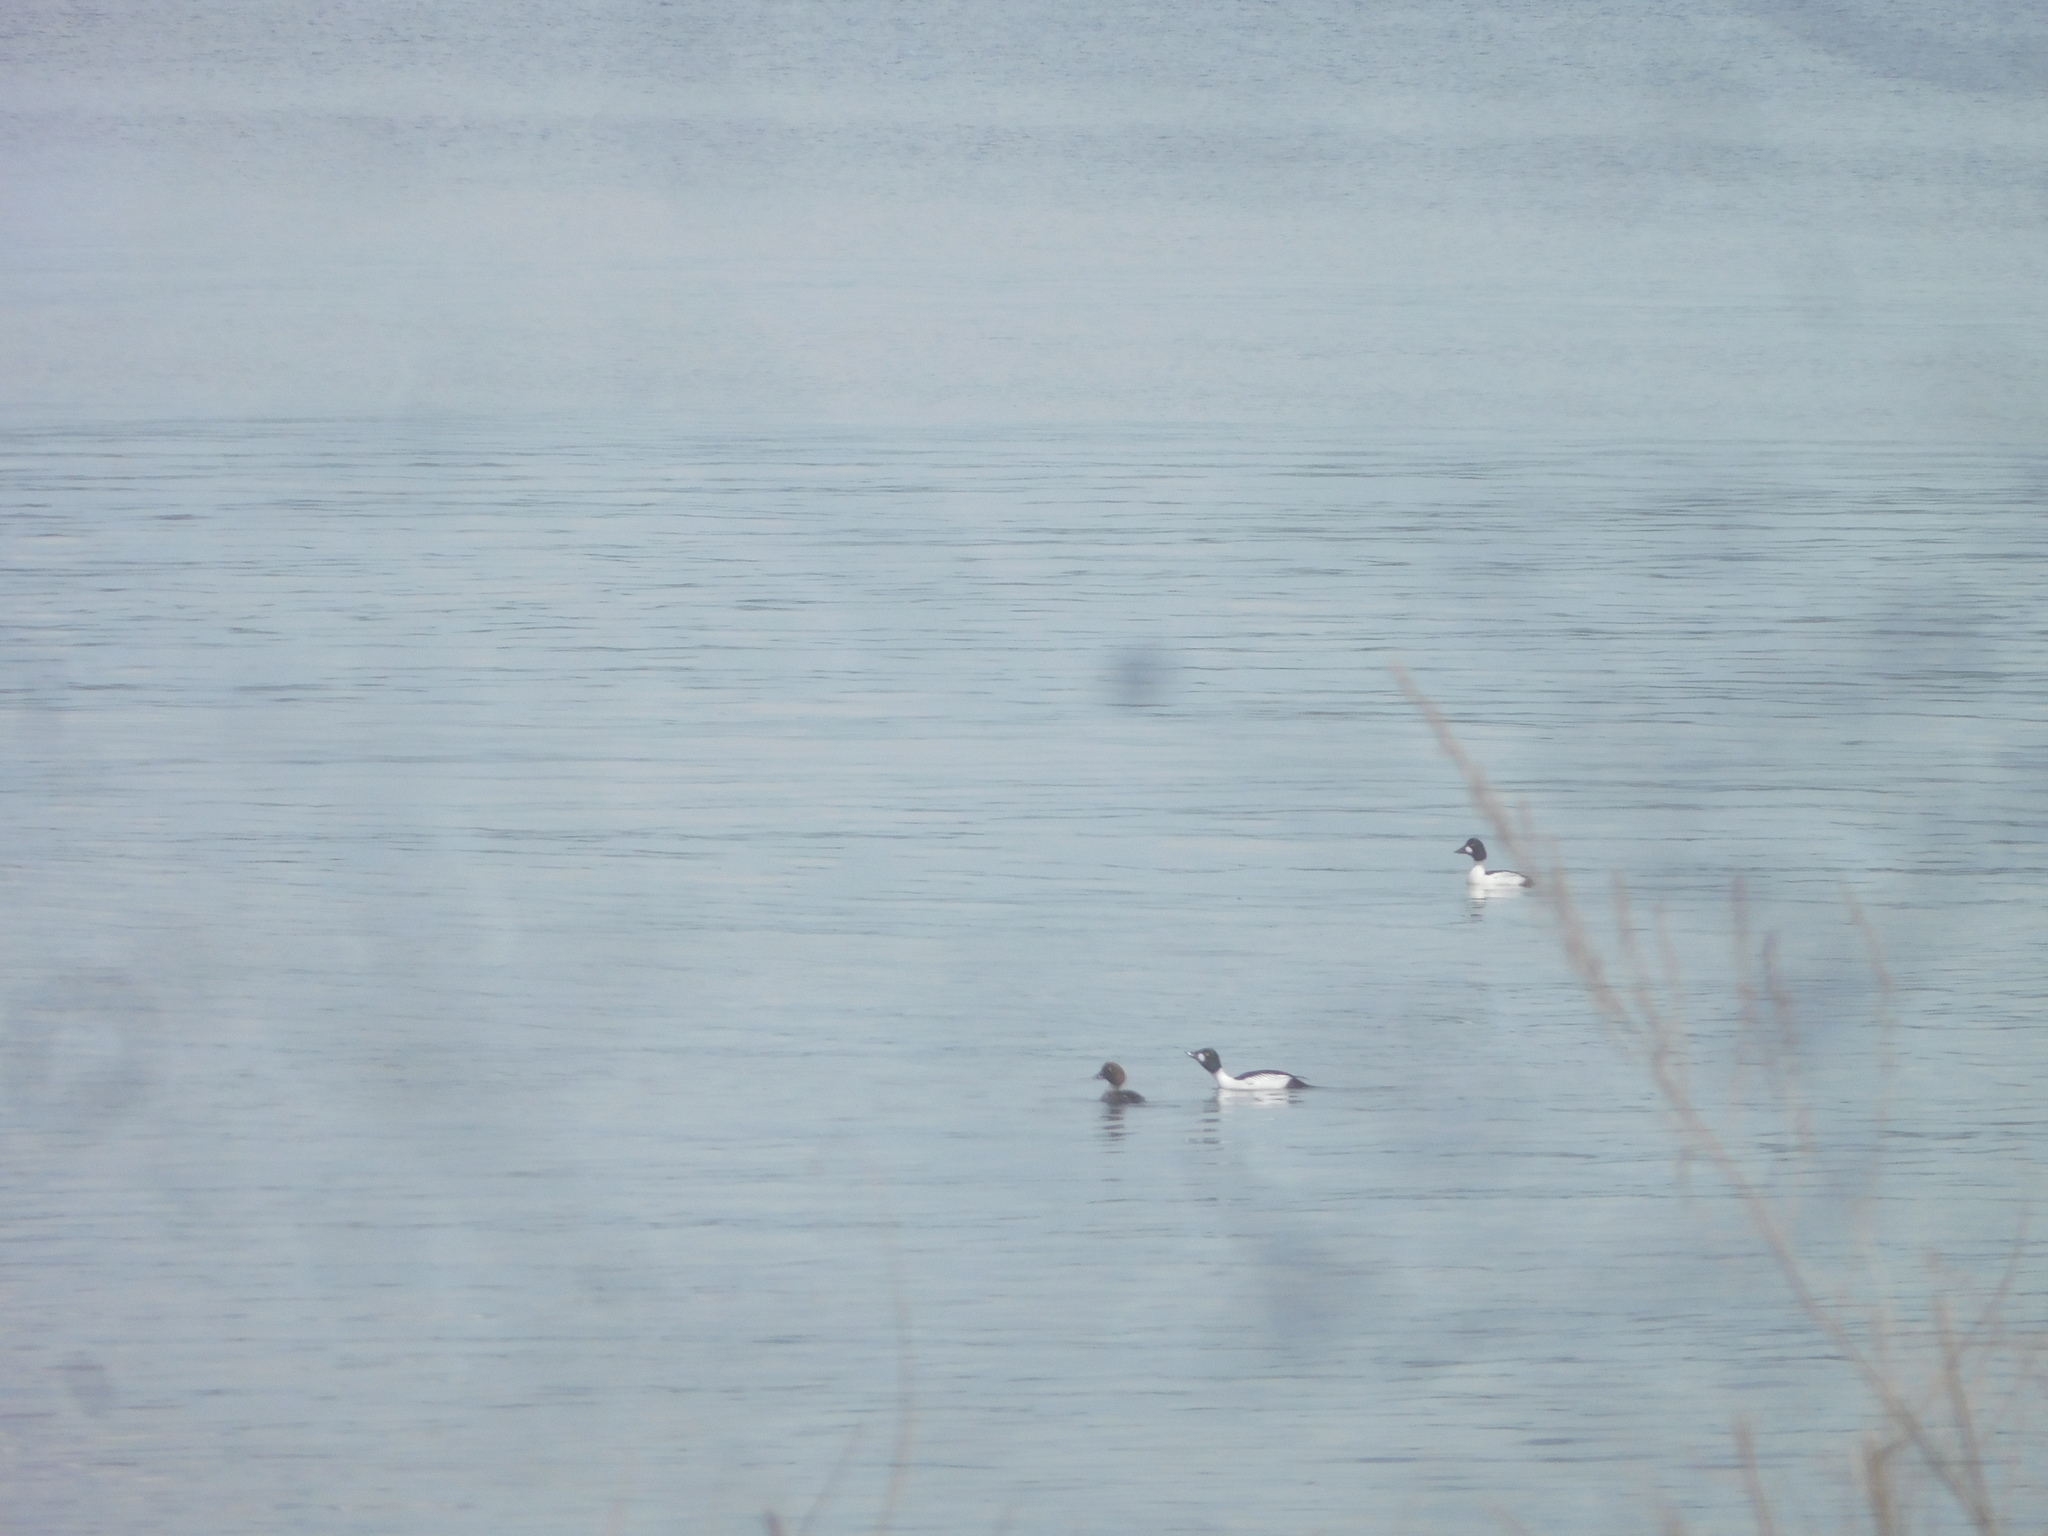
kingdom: Animalia
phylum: Chordata
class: Aves
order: Anseriformes
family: Anatidae
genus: Bucephala
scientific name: Bucephala clangula
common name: Common goldeneye
